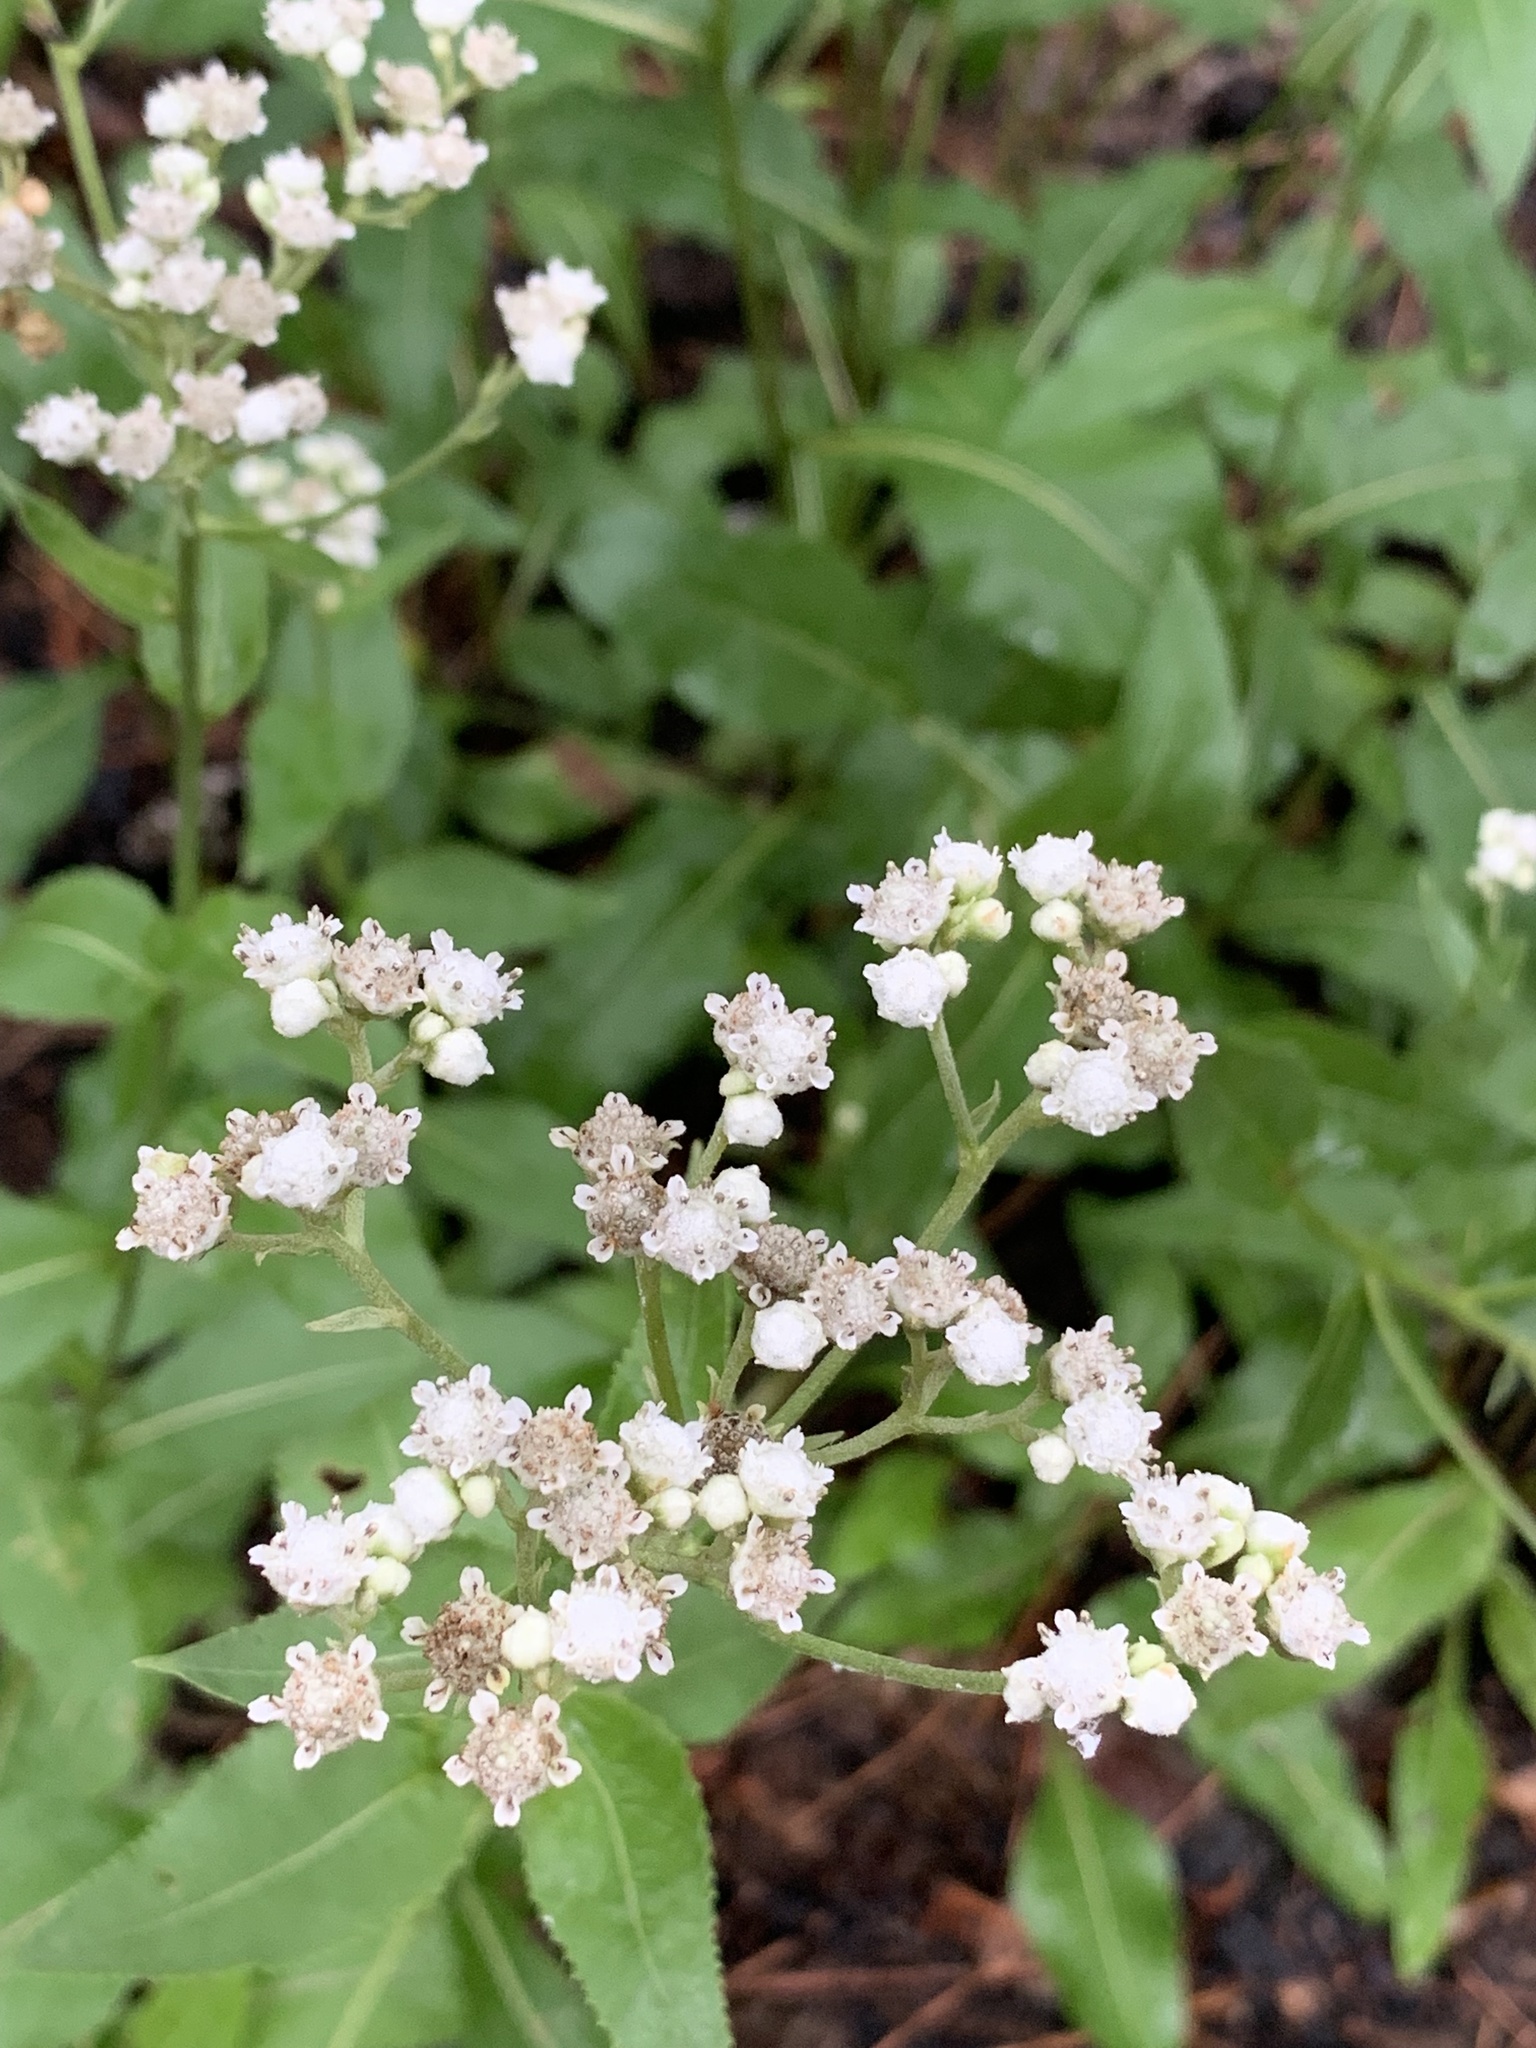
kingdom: Plantae
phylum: Tracheophyta
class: Magnoliopsida
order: Asterales
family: Asteraceae
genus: Parthenium
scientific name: Parthenium integrifolium
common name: American feverfew
